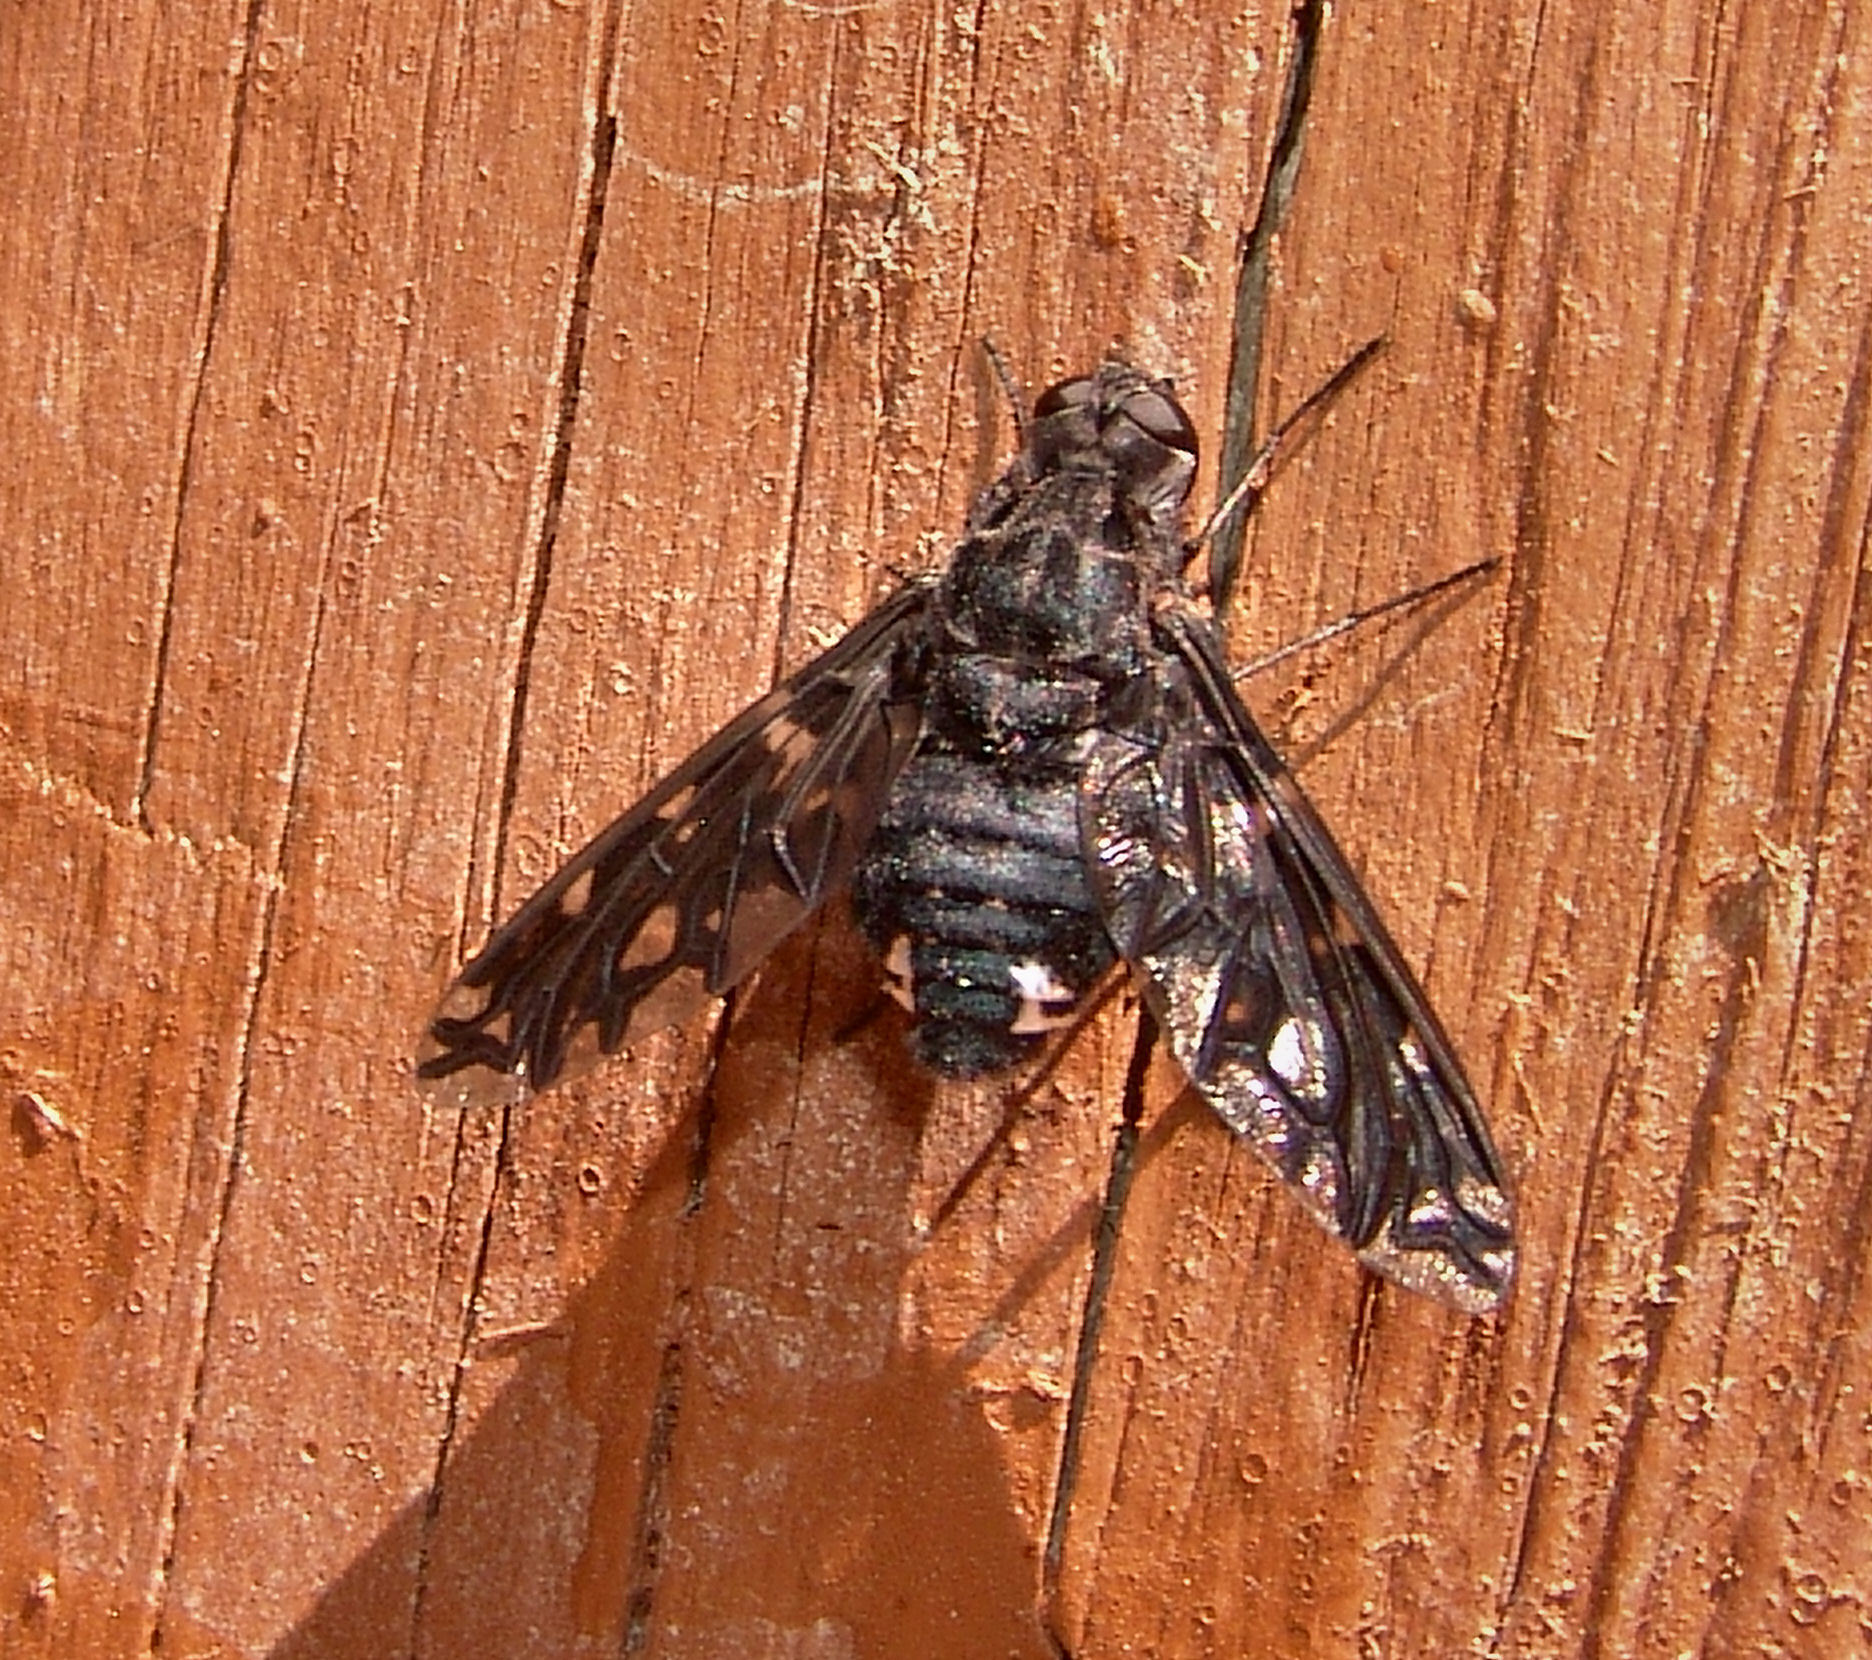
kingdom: Animalia
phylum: Arthropoda
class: Insecta
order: Diptera
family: Bombyliidae
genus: Xenox
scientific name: Xenox tigrinus
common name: Tiger bee fly
